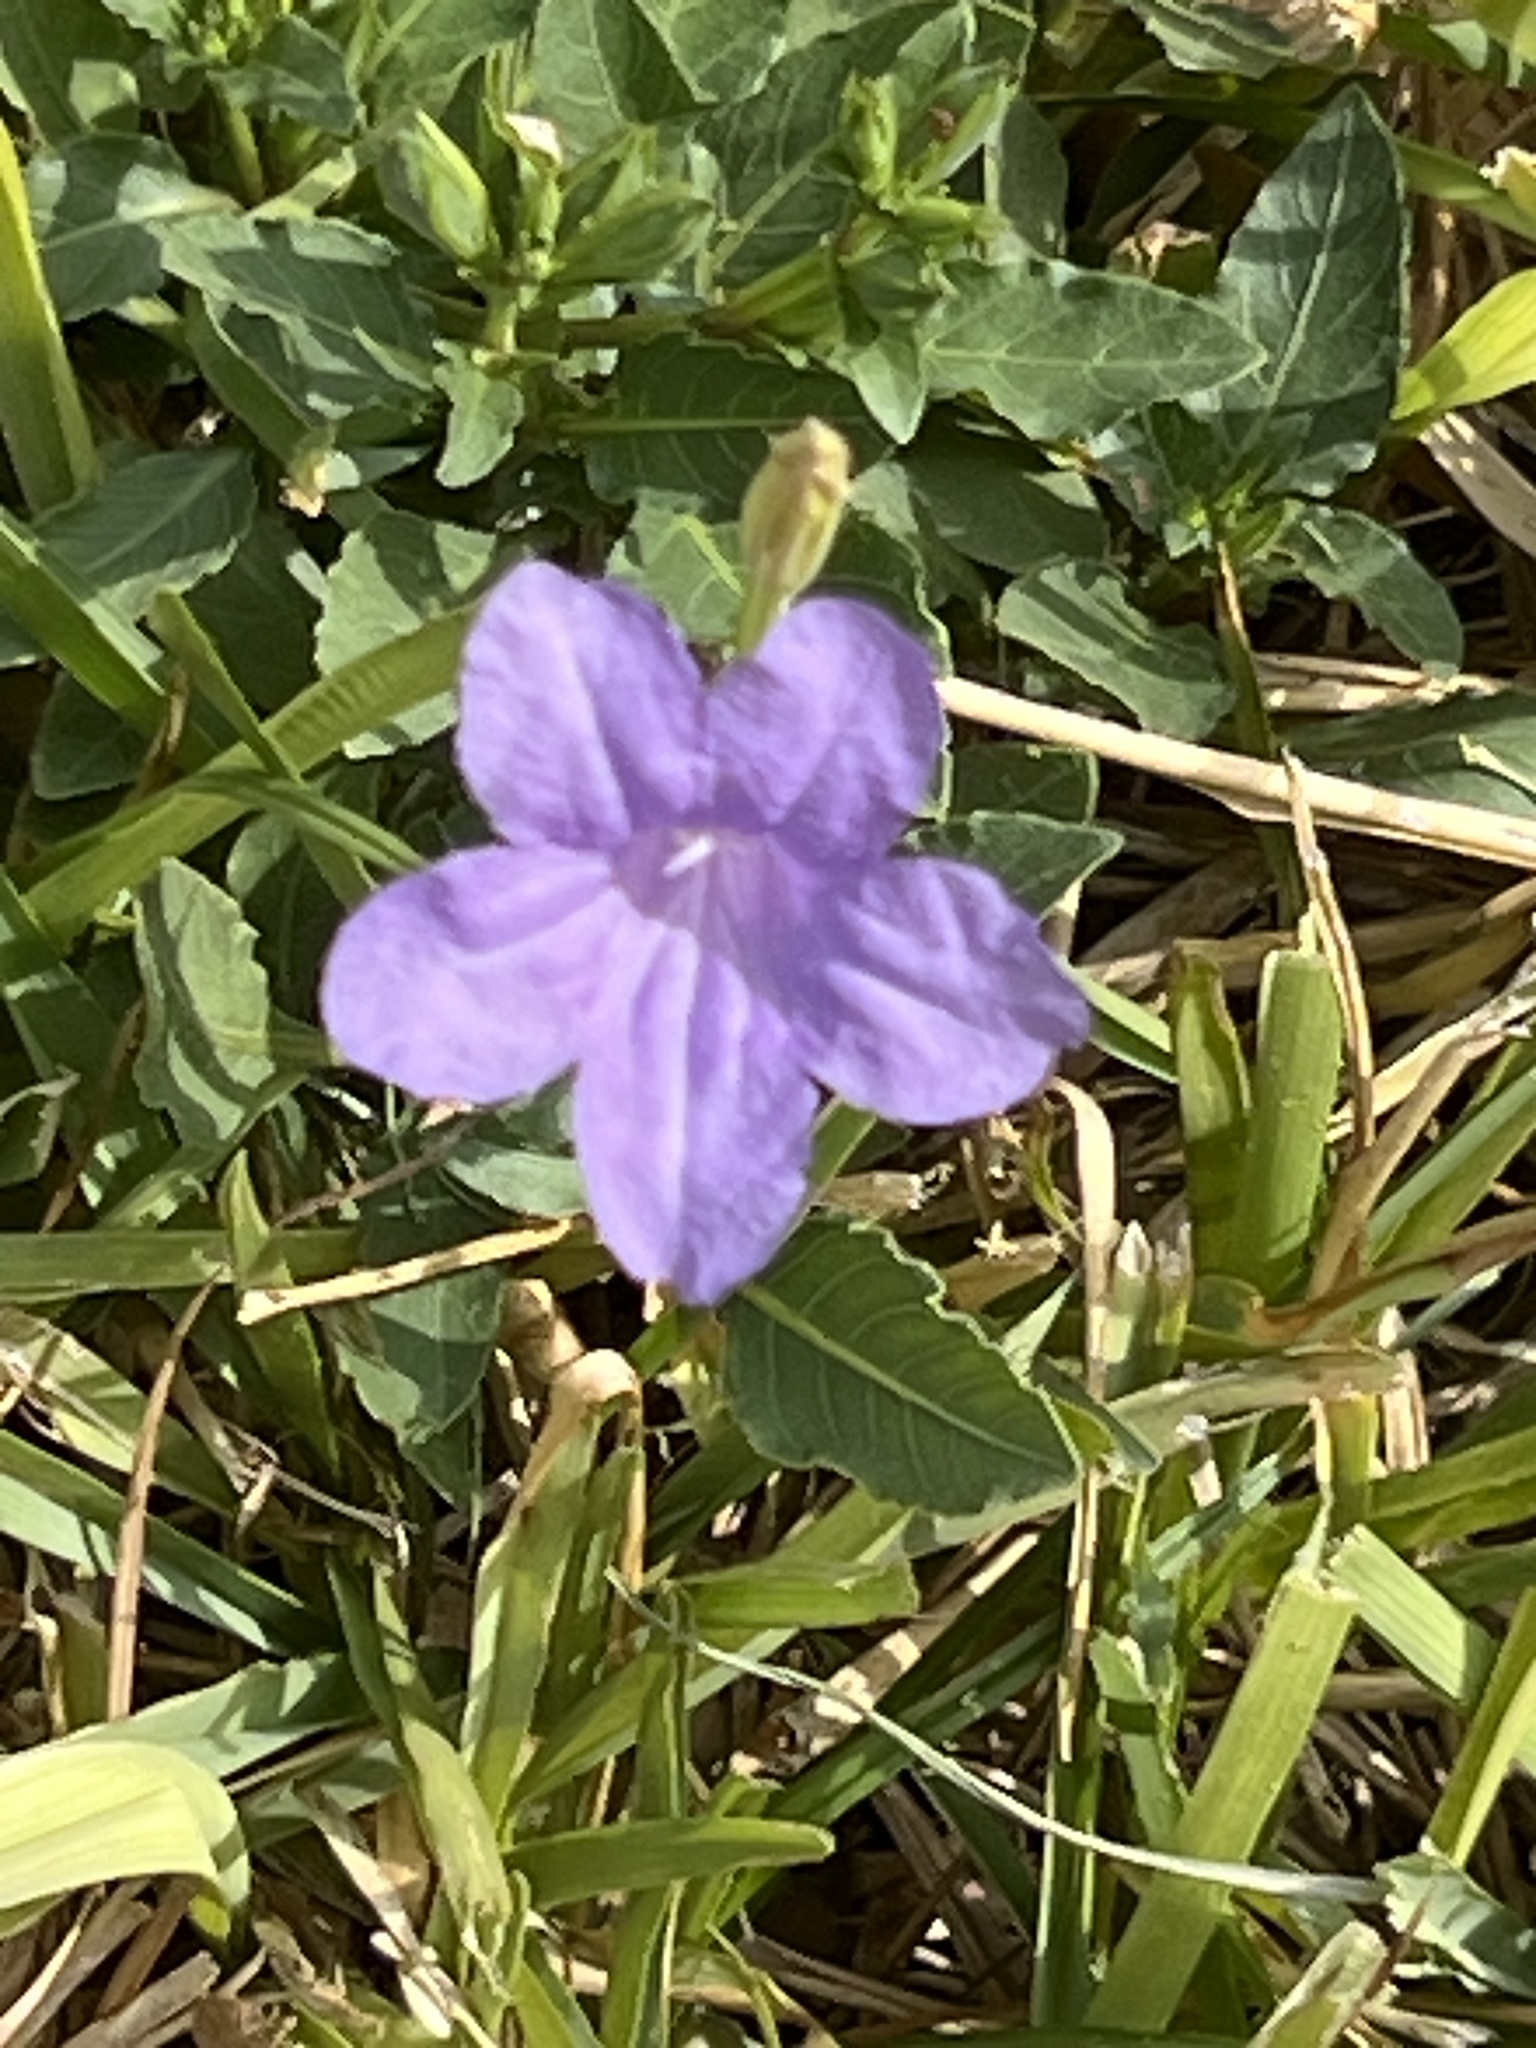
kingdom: Plantae
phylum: Tracheophyta
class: Magnoliopsida
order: Lamiales
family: Acanthaceae
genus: Ruellia
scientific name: Ruellia ciliatiflora
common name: Hairyflower wild petunia
